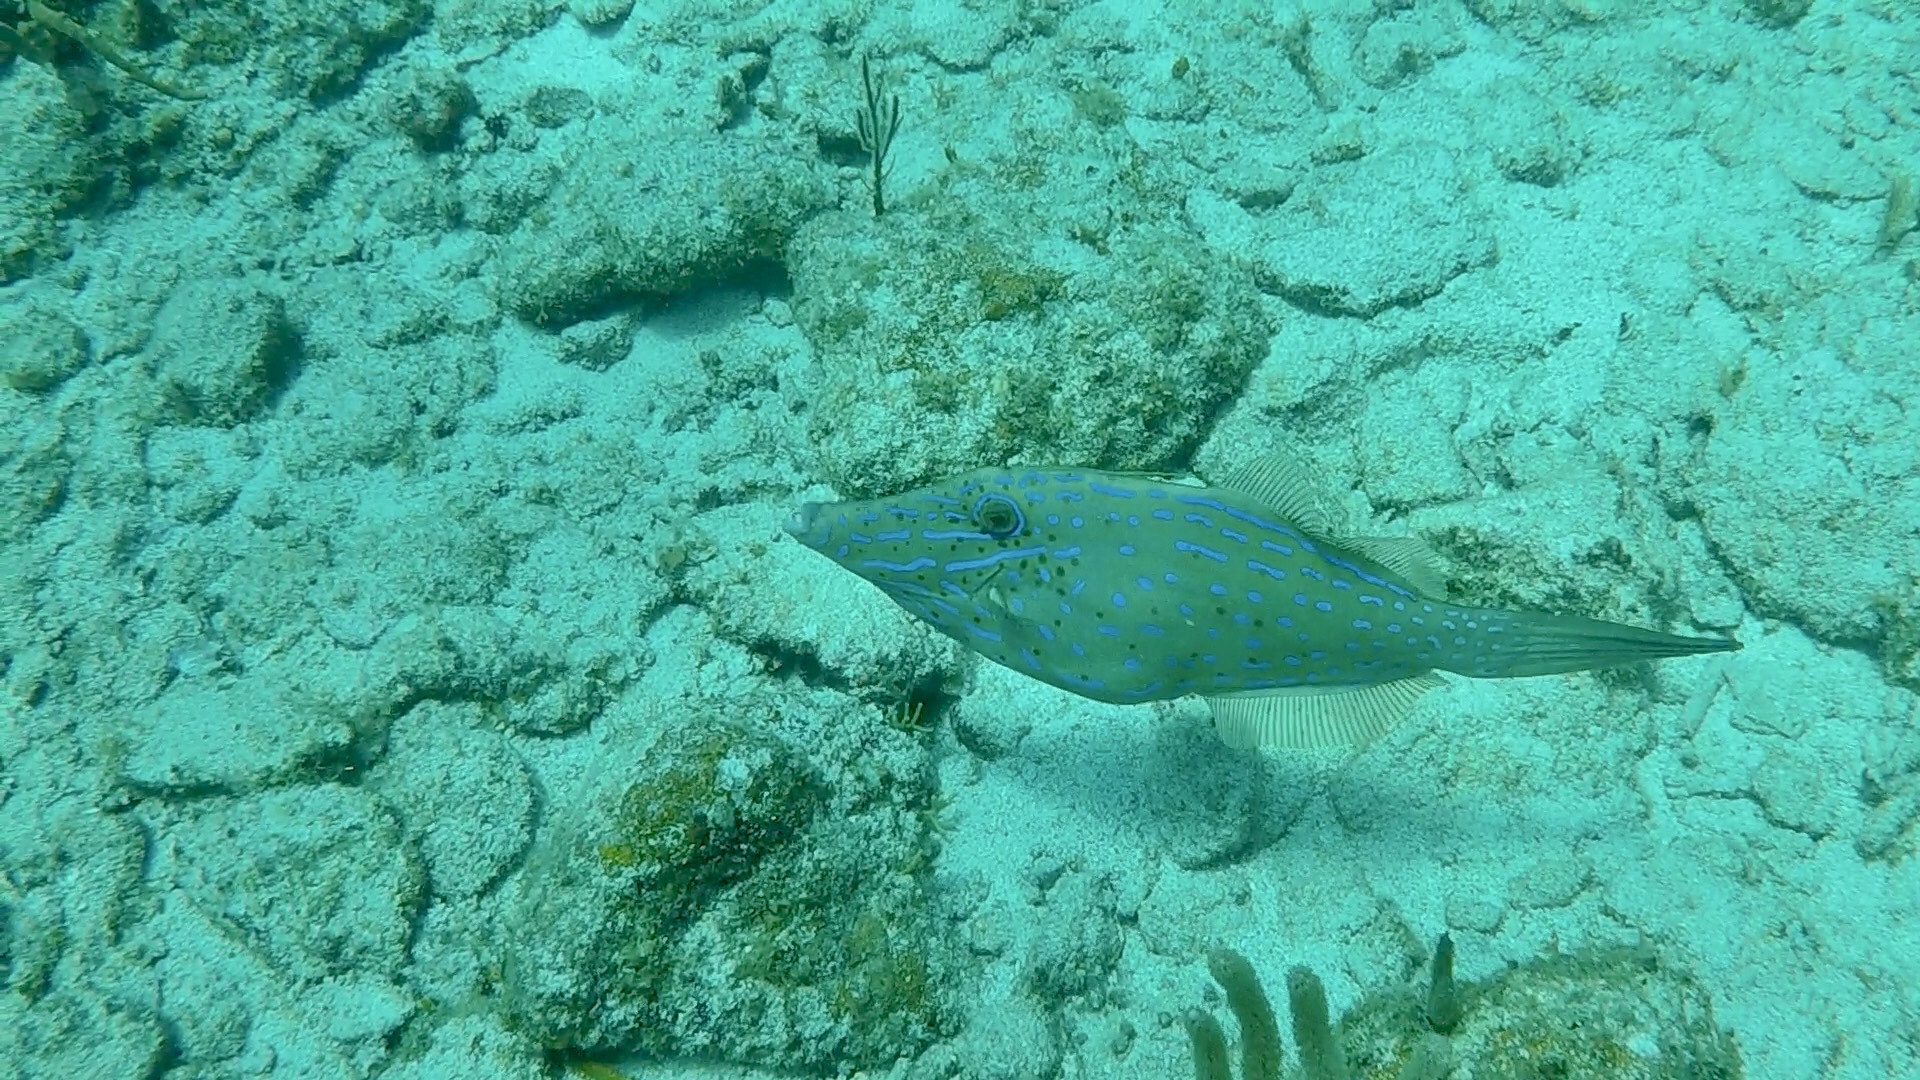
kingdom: Animalia
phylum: Chordata
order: Tetraodontiformes
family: Monacanthidae
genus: Aluterus
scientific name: Aluterus scriptus
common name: Scribbled leatherjacket filefish
